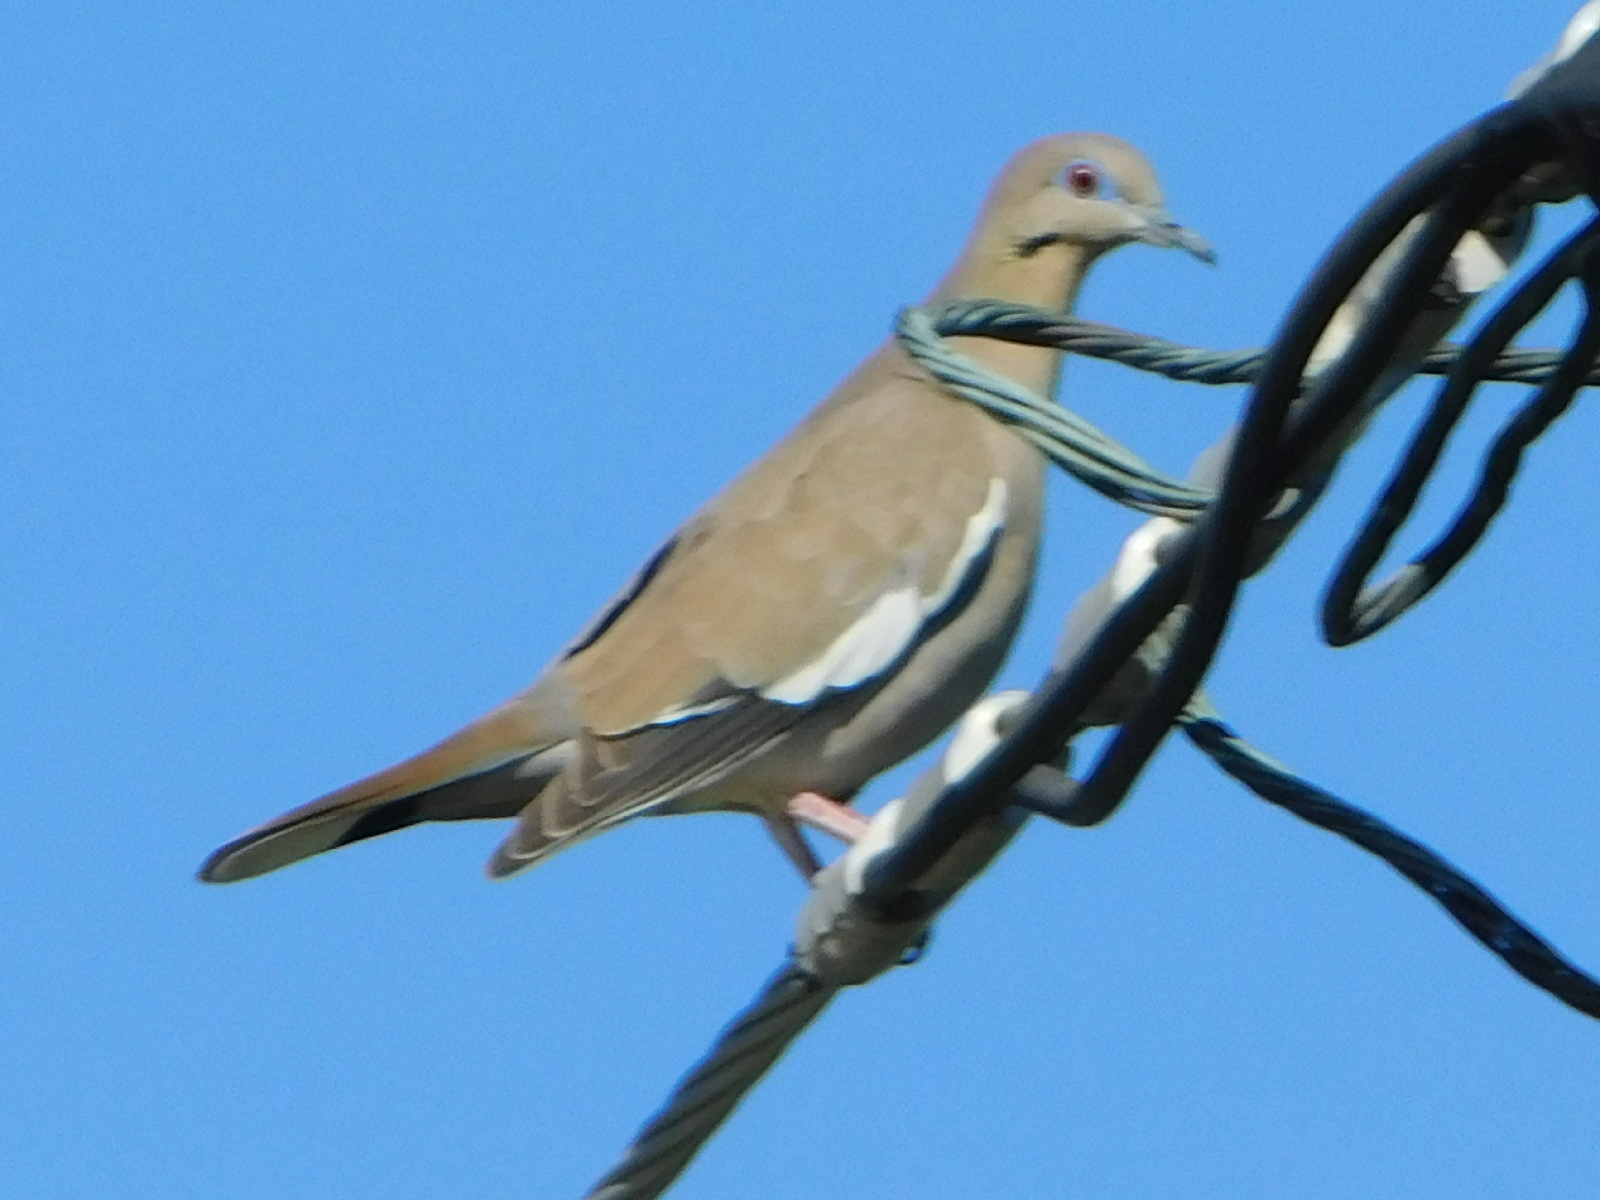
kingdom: Animalia
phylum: Chordata
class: Aves
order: Columbiformes
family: Columbidae
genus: Zenaida
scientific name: Zenaida asiatica
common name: White-winged dove
